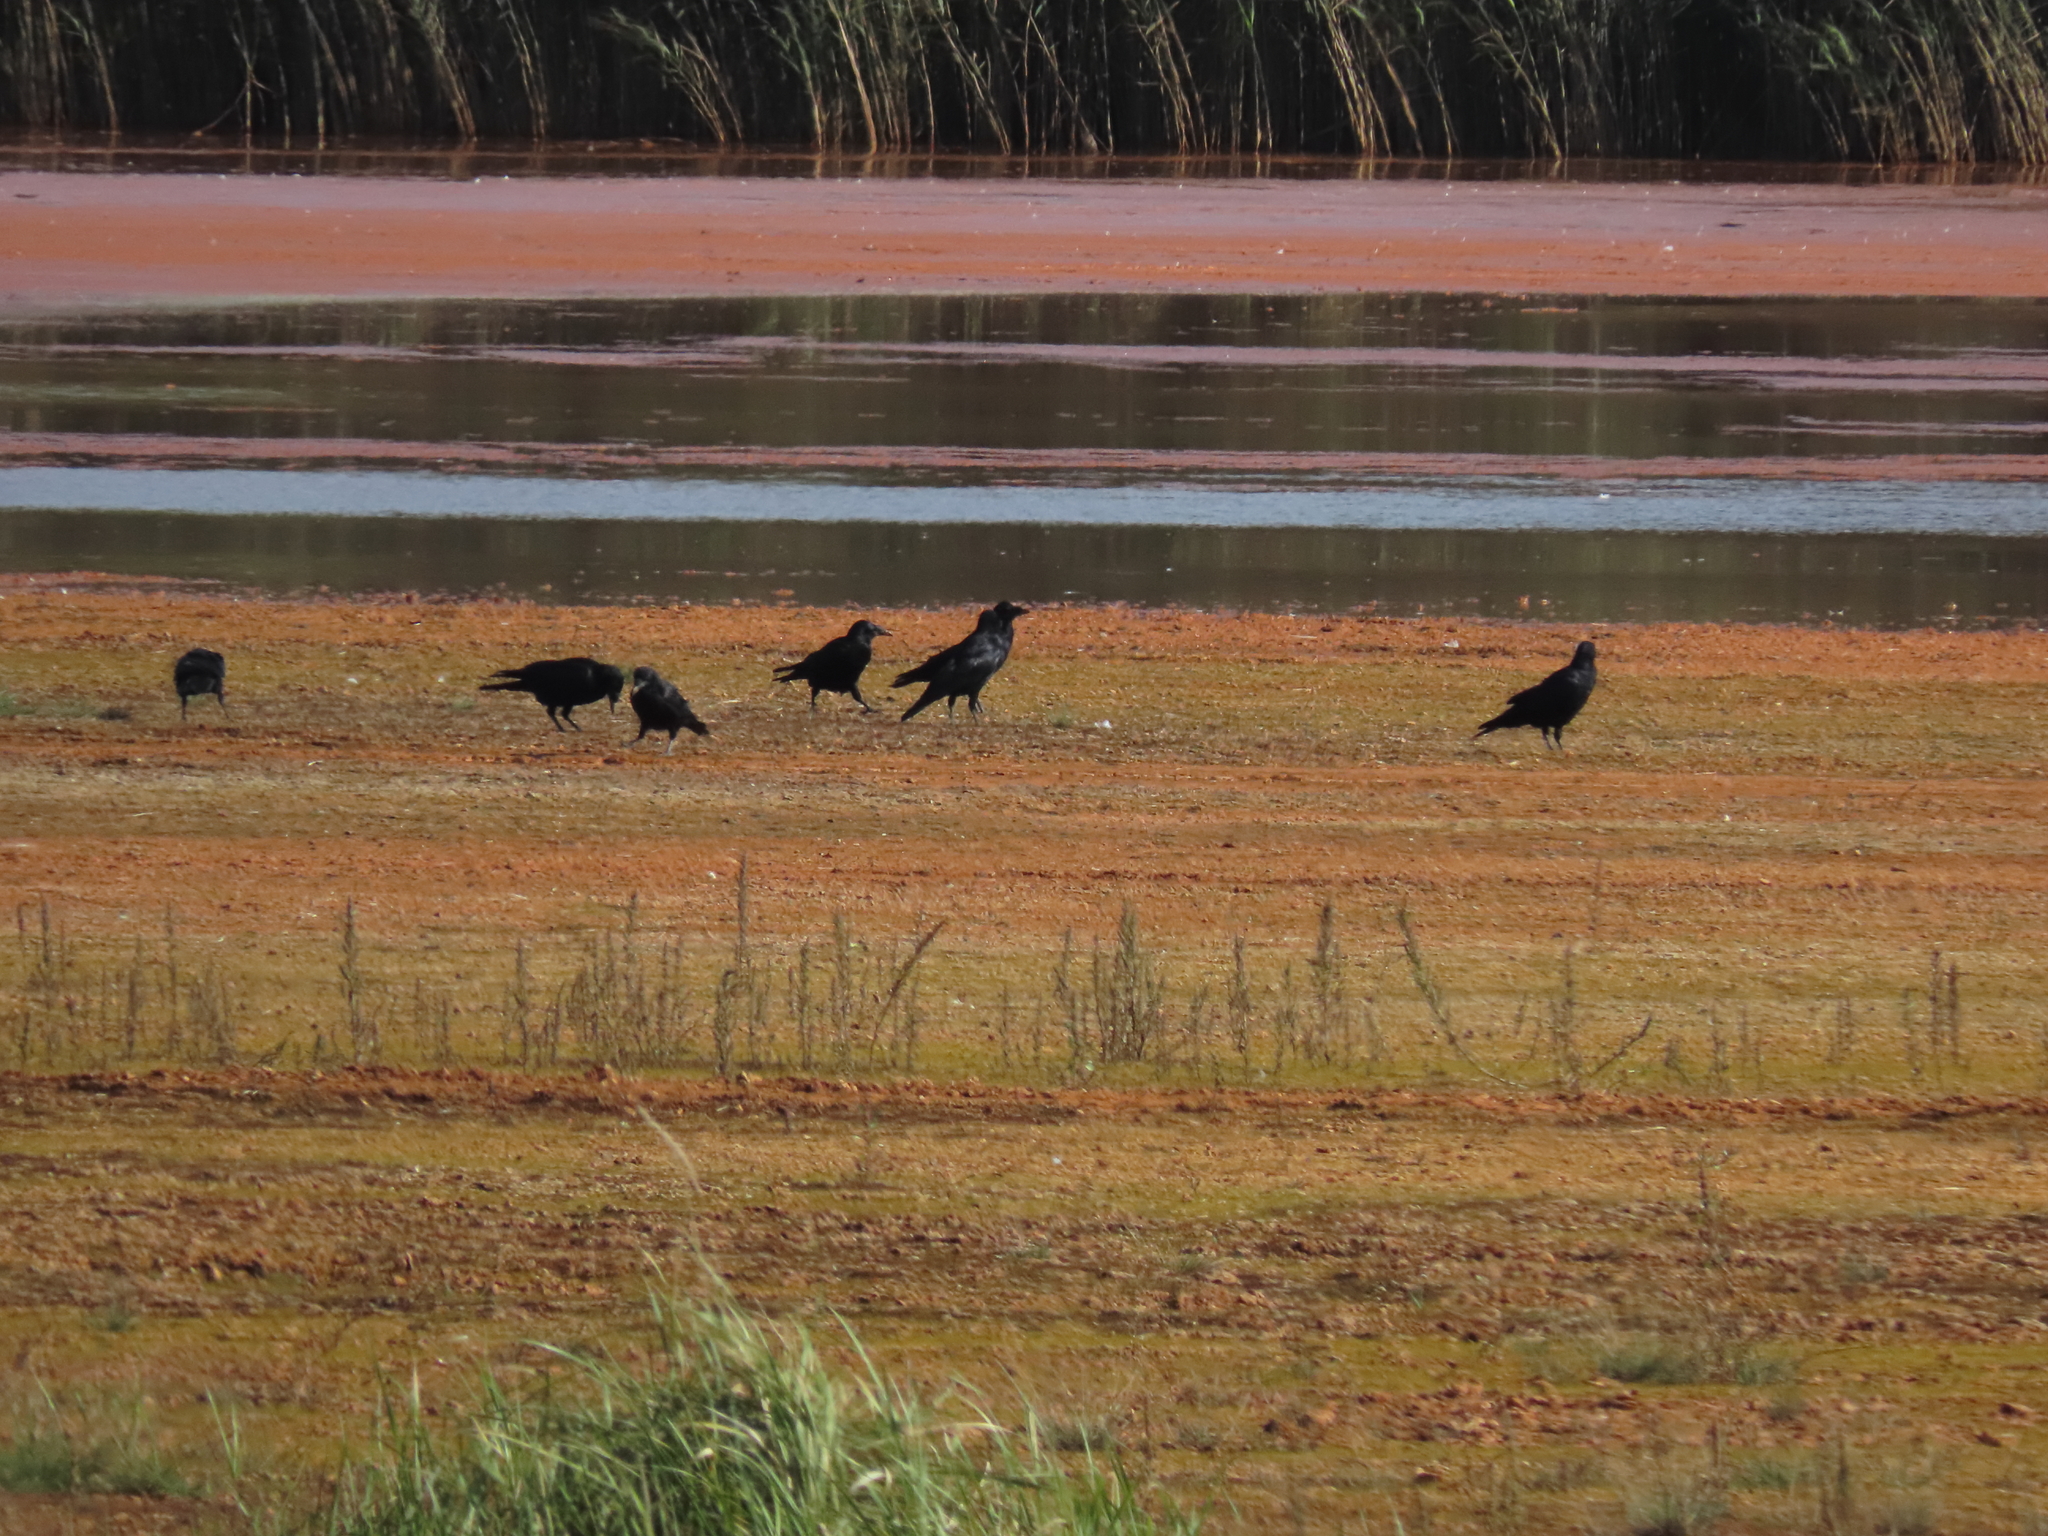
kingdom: Animalia
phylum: Chordata
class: Aves
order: Passeriformes
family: Corvidae
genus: Corvus
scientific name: Corvus frugilegus
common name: Rook
